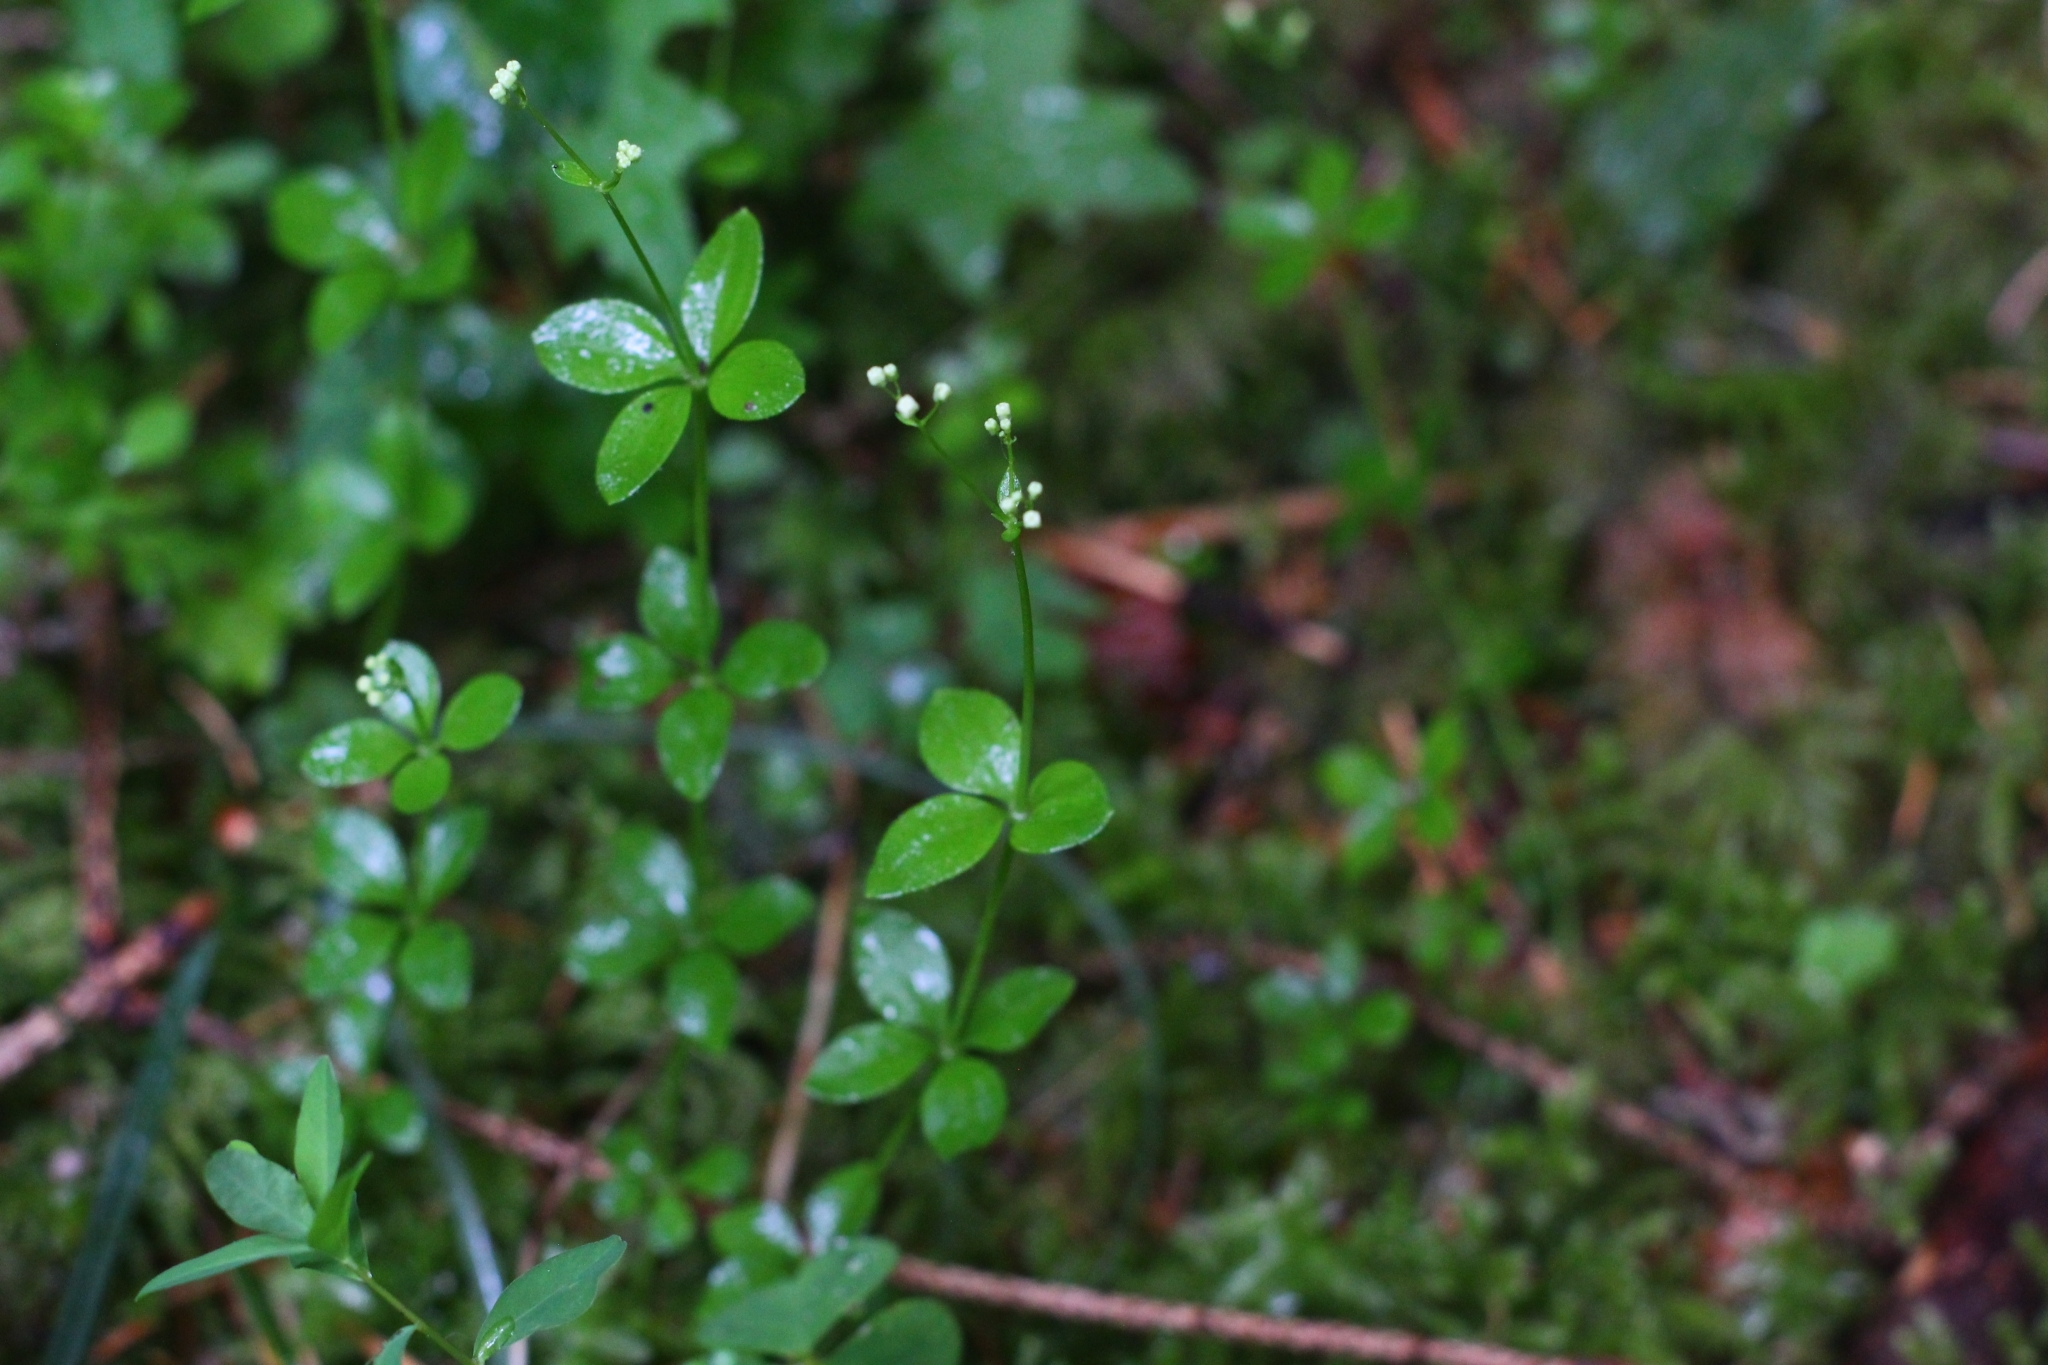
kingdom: Plantae
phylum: Tracheophyta
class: Magnoliopsida
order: Gentianales
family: Rubiaceae
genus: Galium
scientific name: Galium rotundifolium
